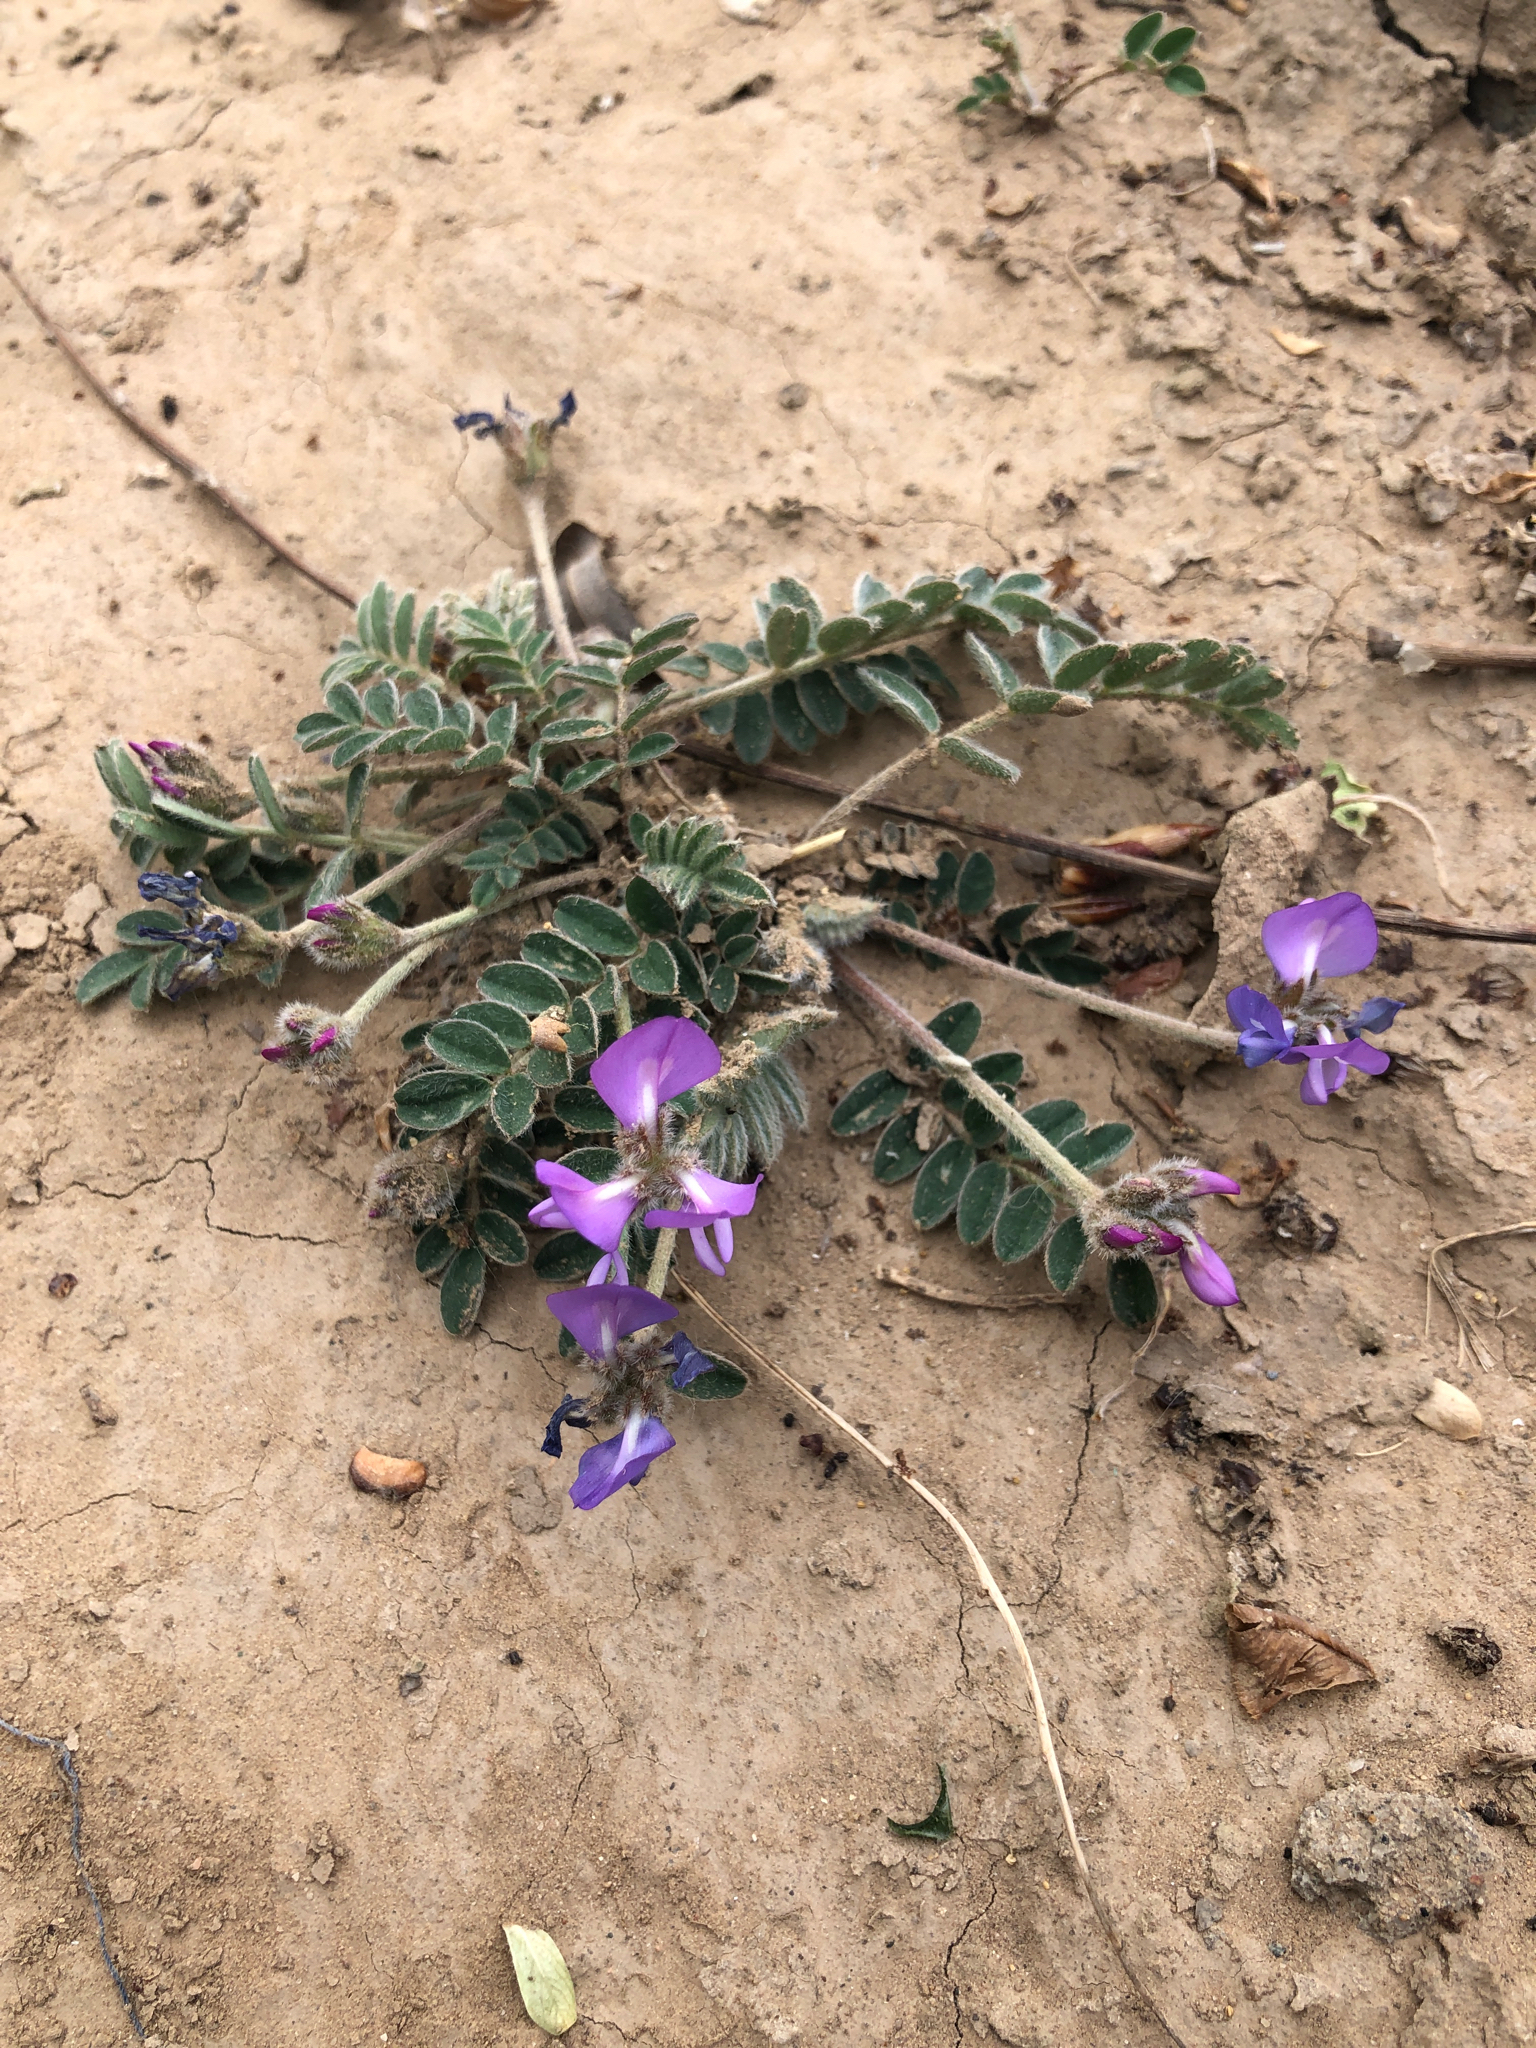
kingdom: Plantae
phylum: Tracheophyta
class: Magnoliopsida
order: Fabales
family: Fabaceae
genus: Gueldenstaedtia
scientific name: Gueldenstaedtia verna
